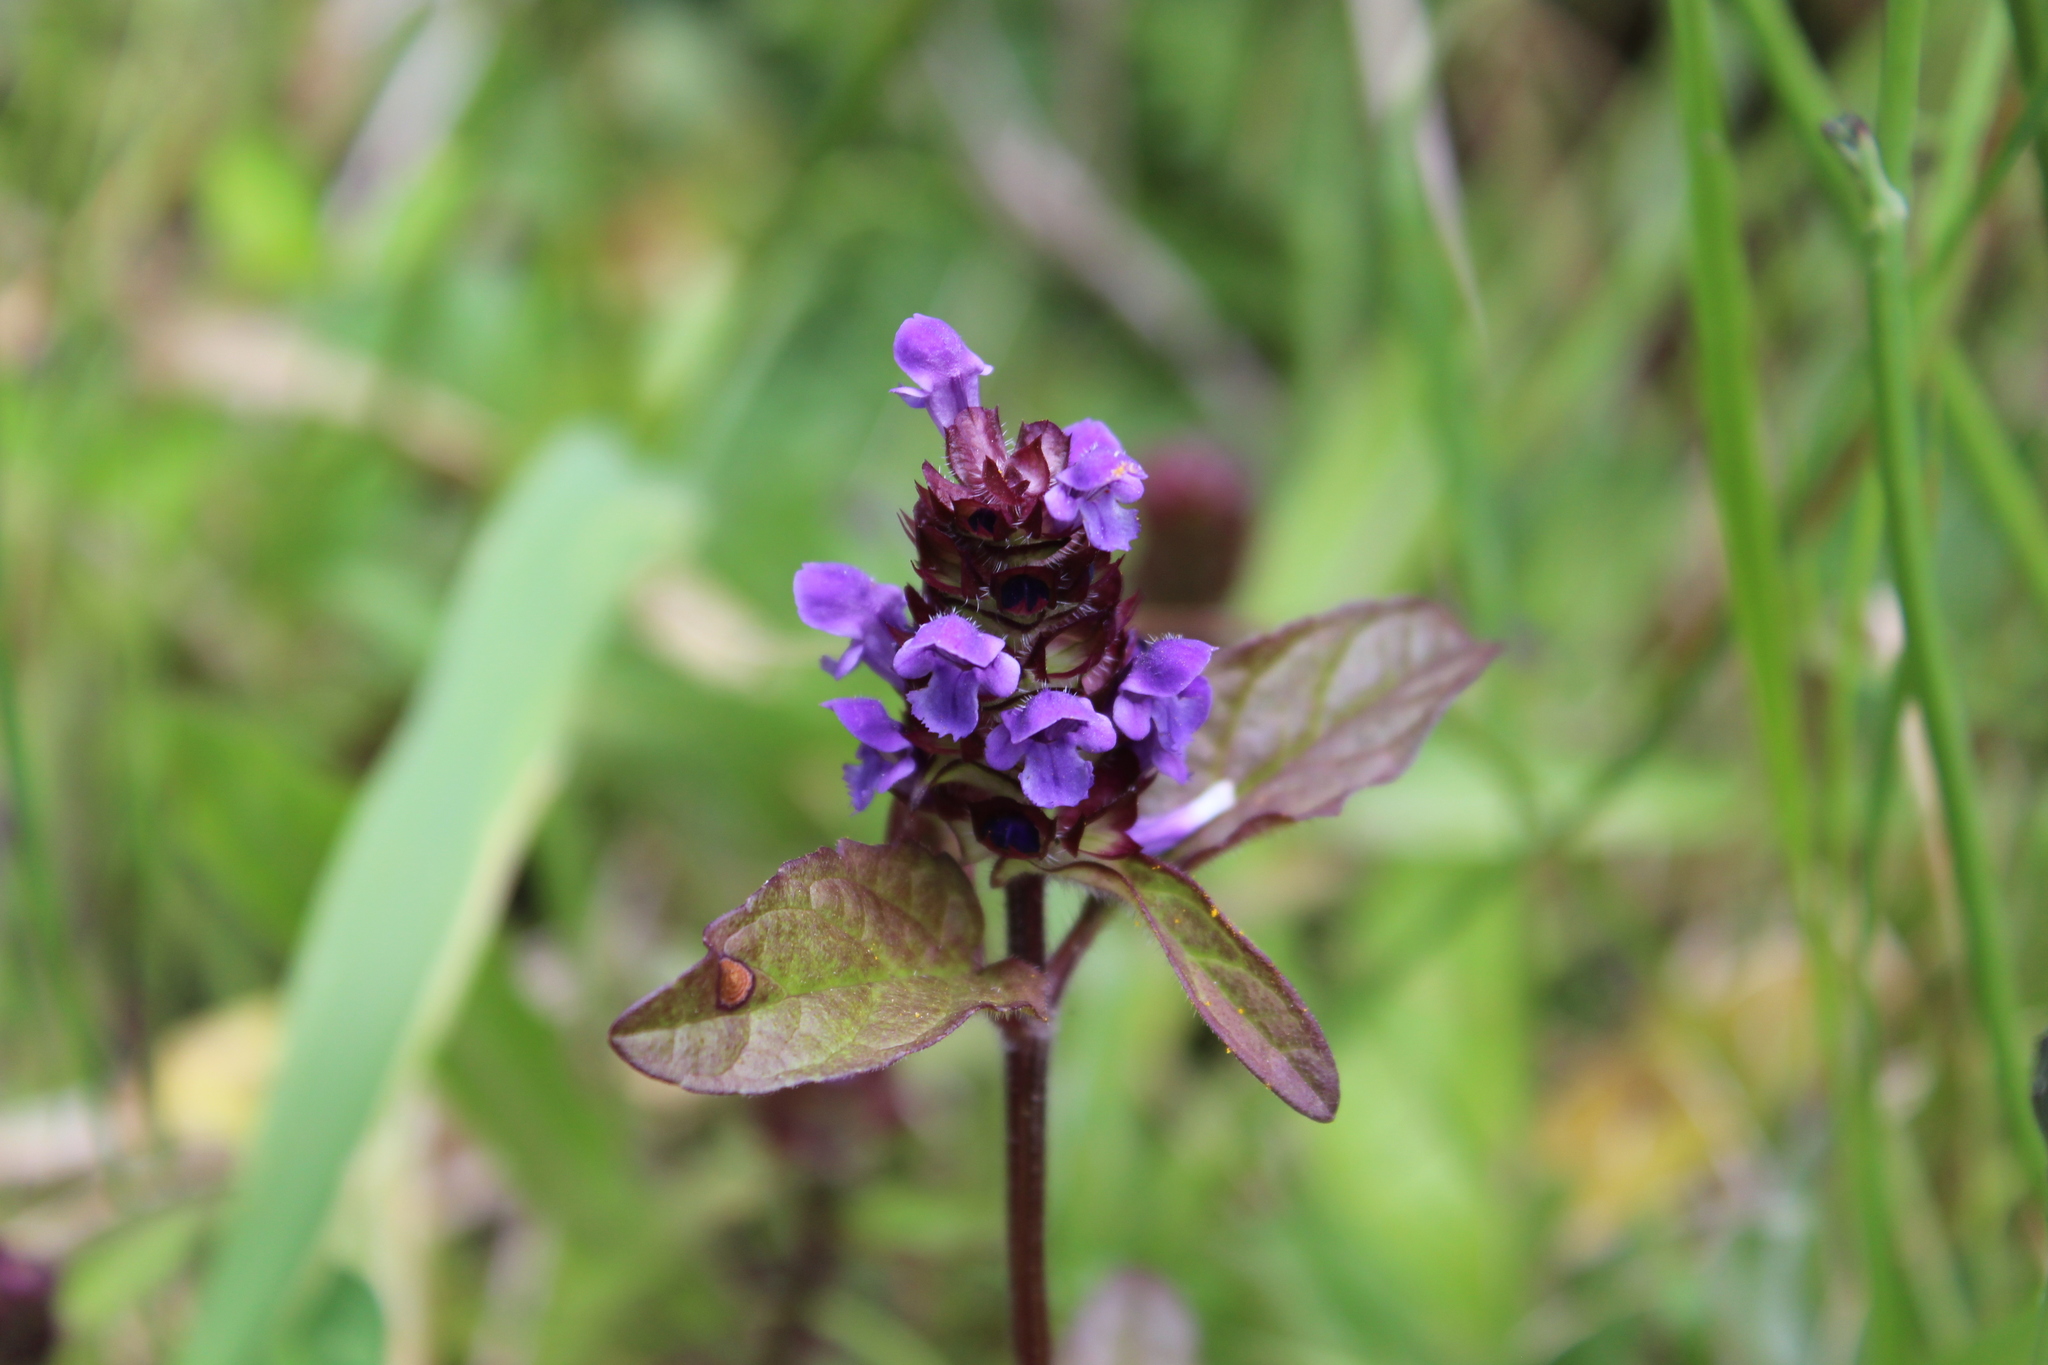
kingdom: Plantae
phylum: Tracheophyta
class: Magnoliopsida
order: Lamiales
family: Lamiaceae
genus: Prunella
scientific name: Prunella vulgaris
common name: Heal-all
